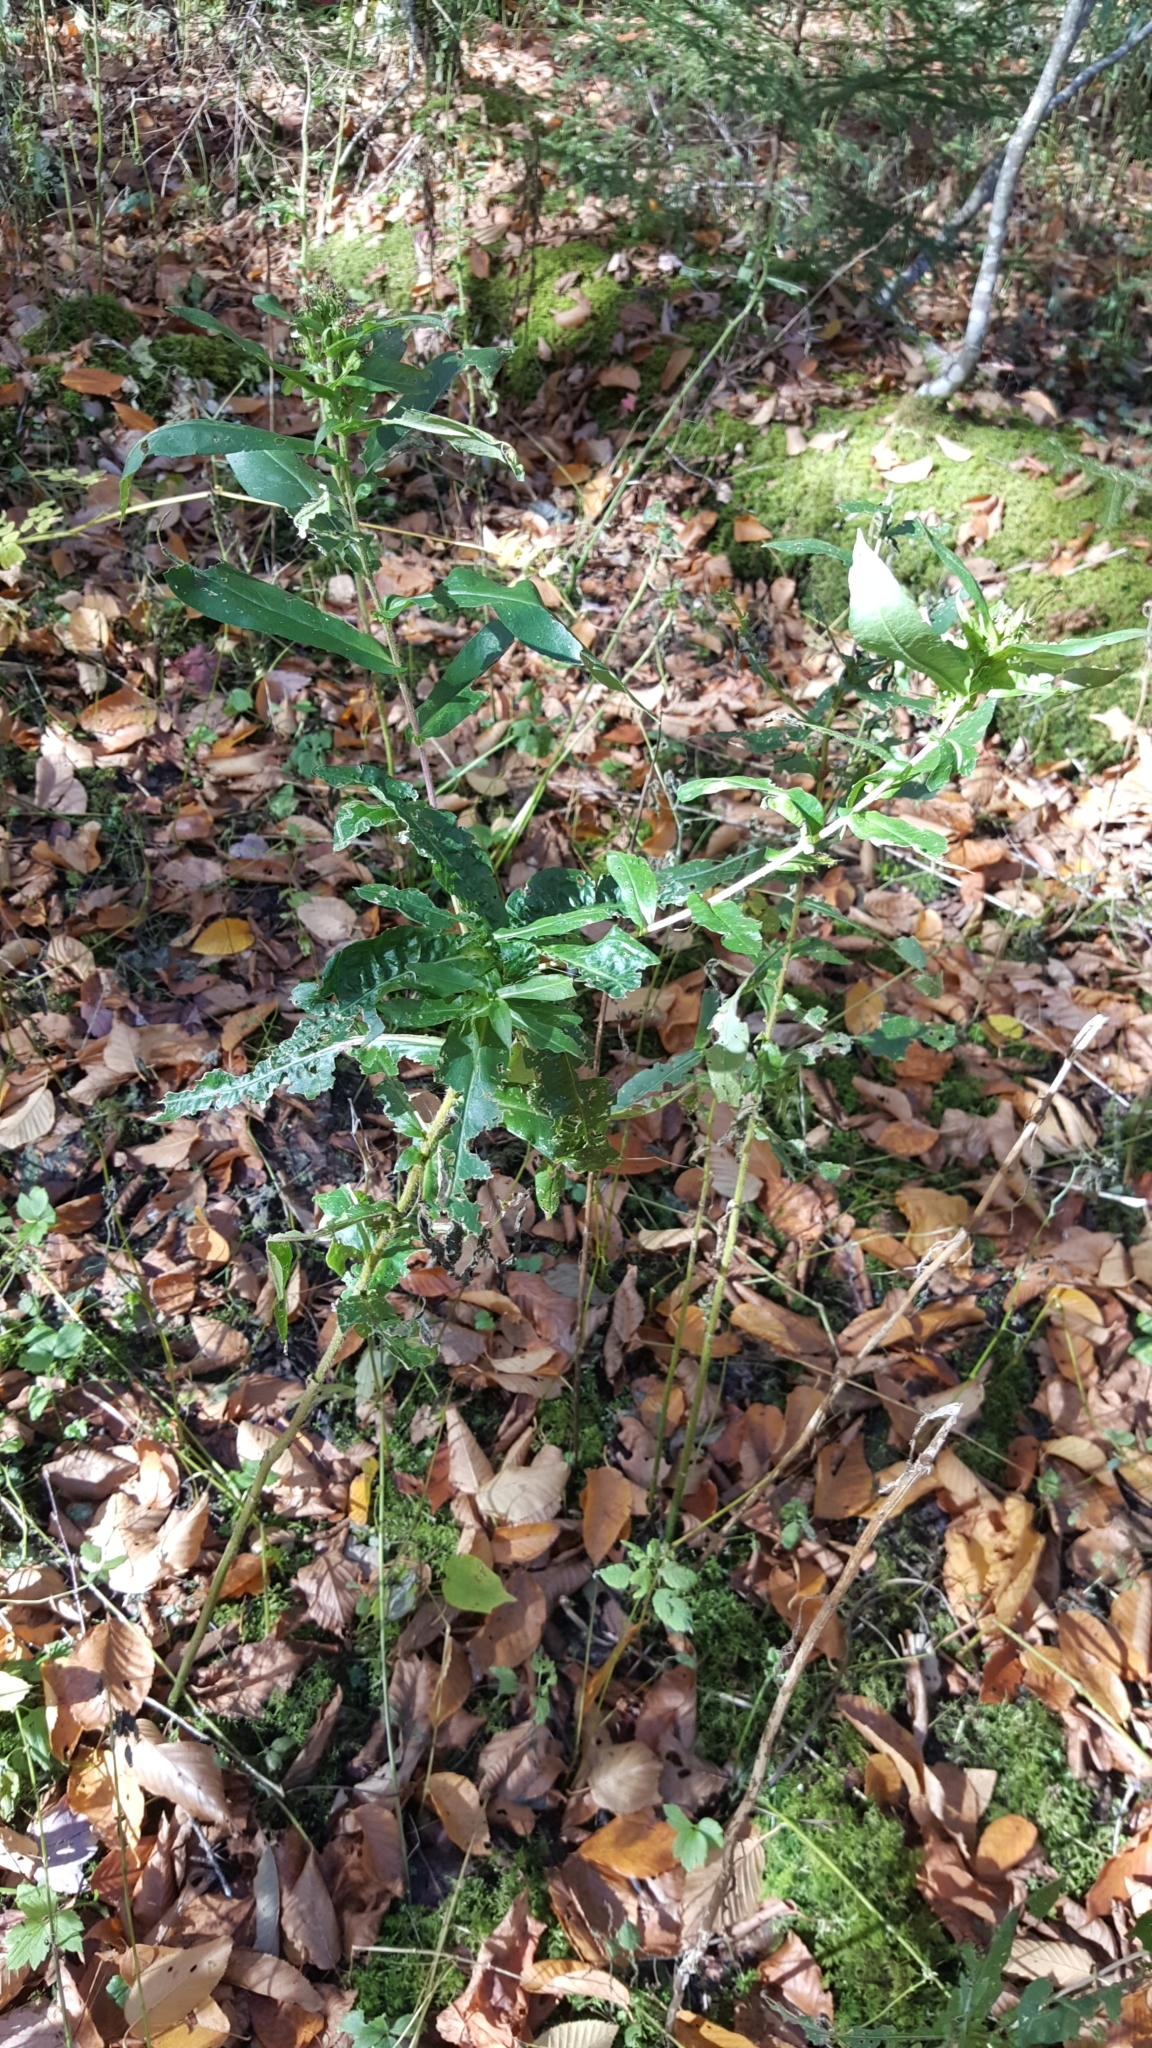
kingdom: Plantae
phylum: Tracheophyta
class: Magnoliopsida
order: Asterales
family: Asteraceae
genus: Symphyotrichum
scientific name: Symphyotrichum puniceum
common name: Bog aster
